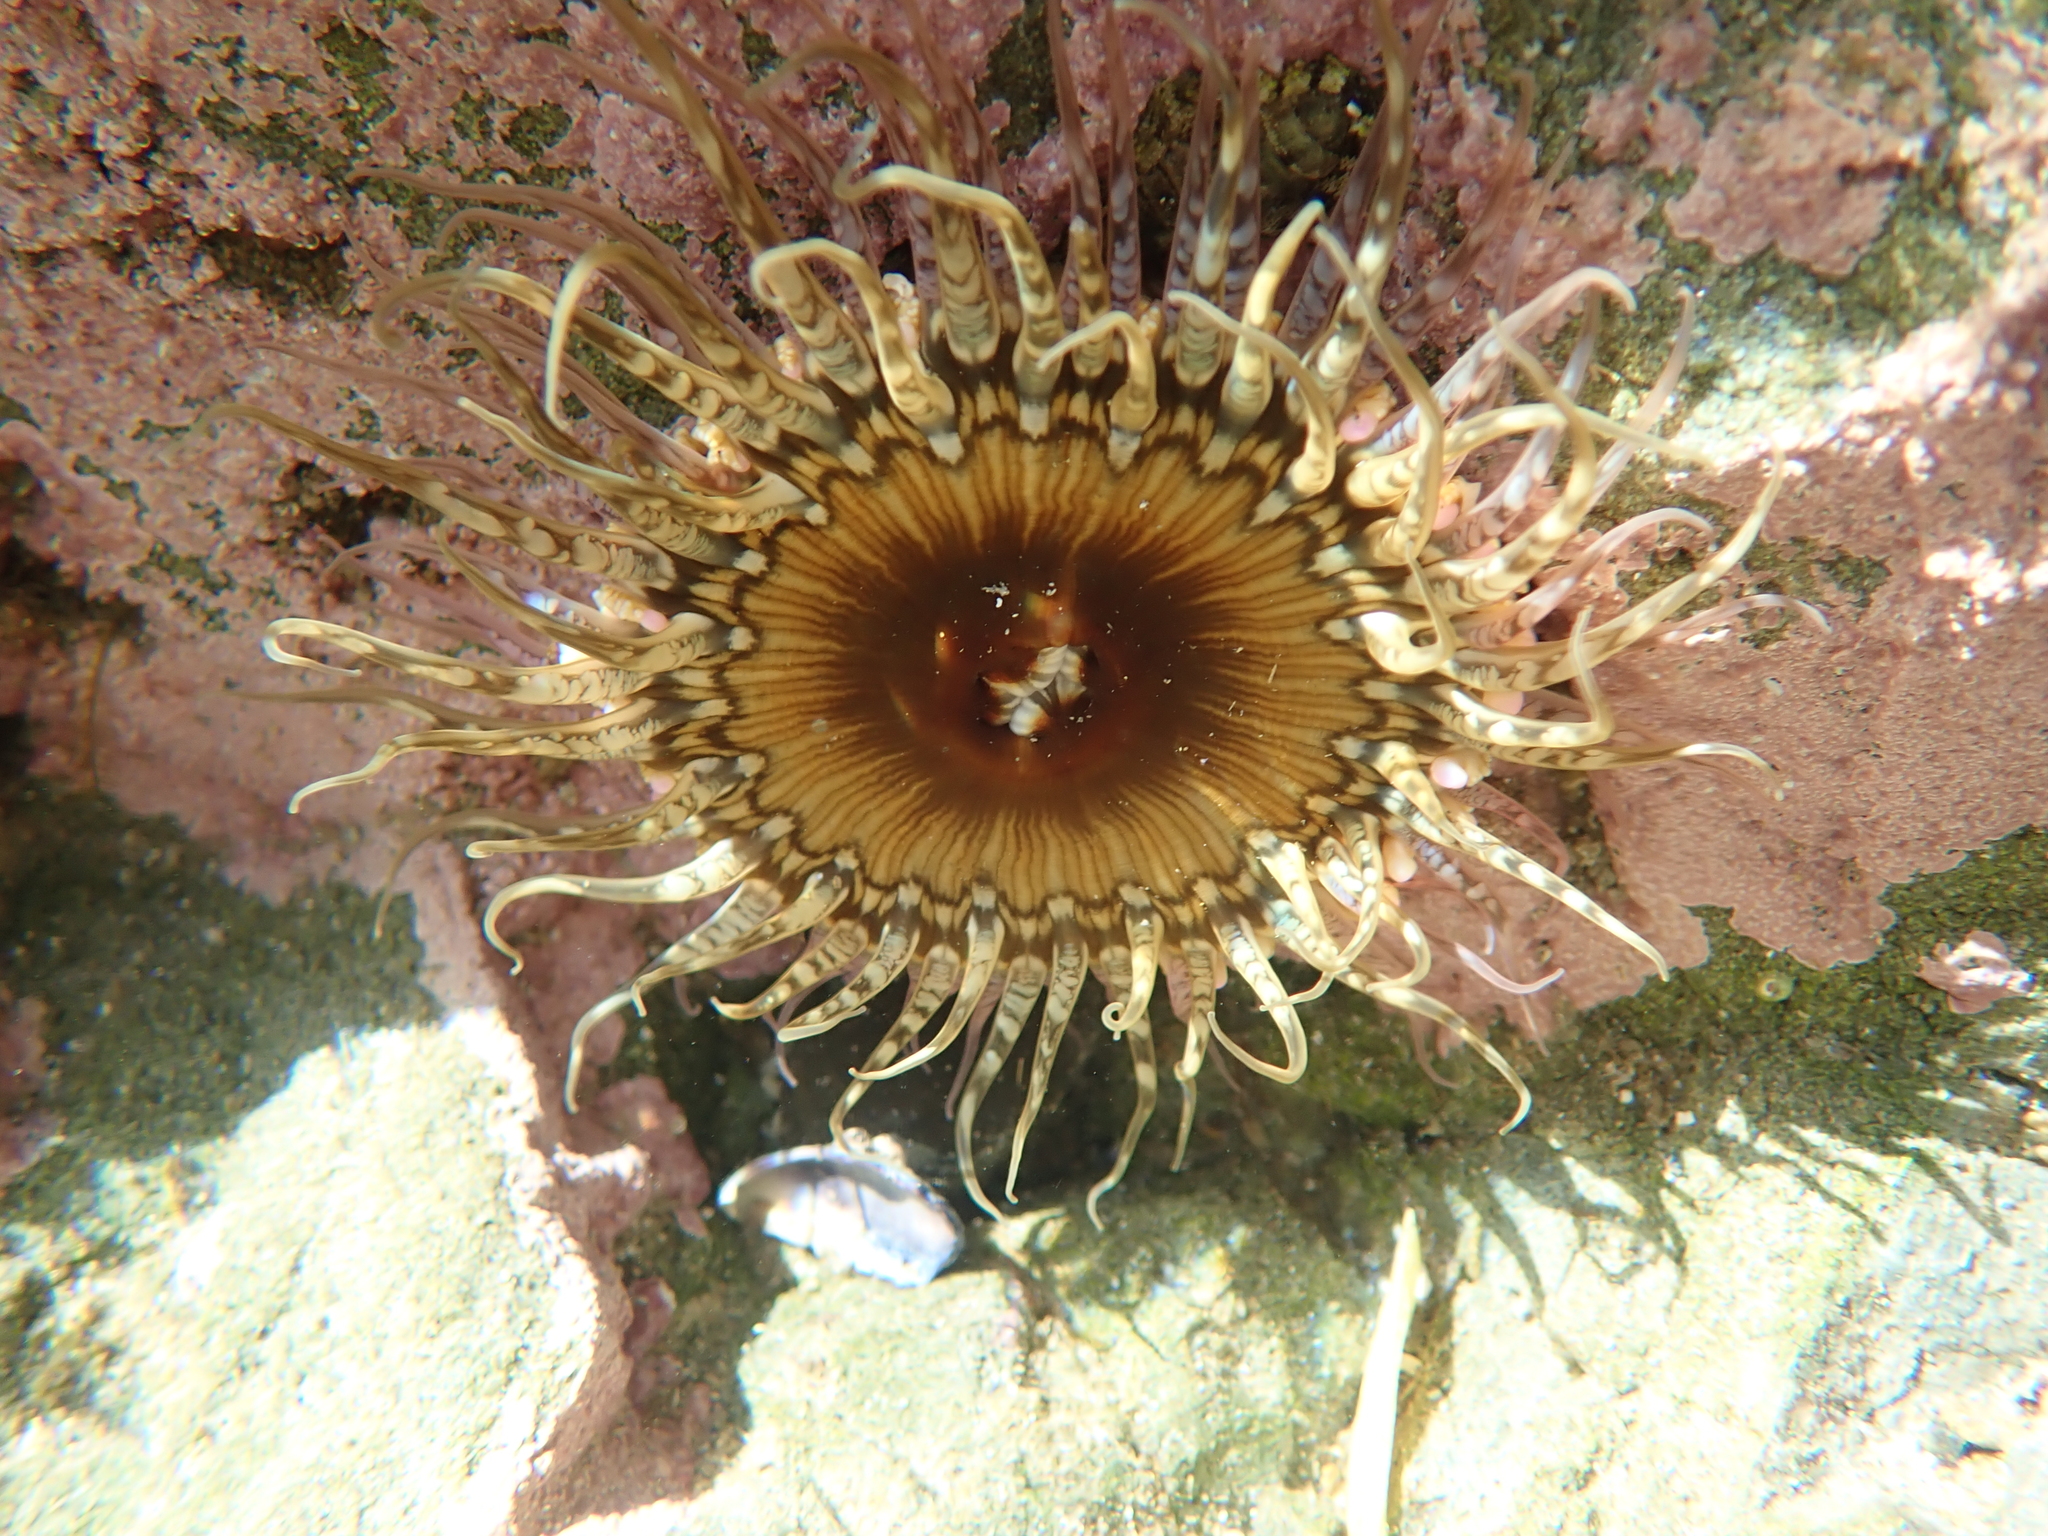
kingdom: Animalia
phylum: Cnidaria
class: Anthozoa
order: Actiniaria
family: Actiniidae
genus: Oulactis
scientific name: Oulactis muscosa
